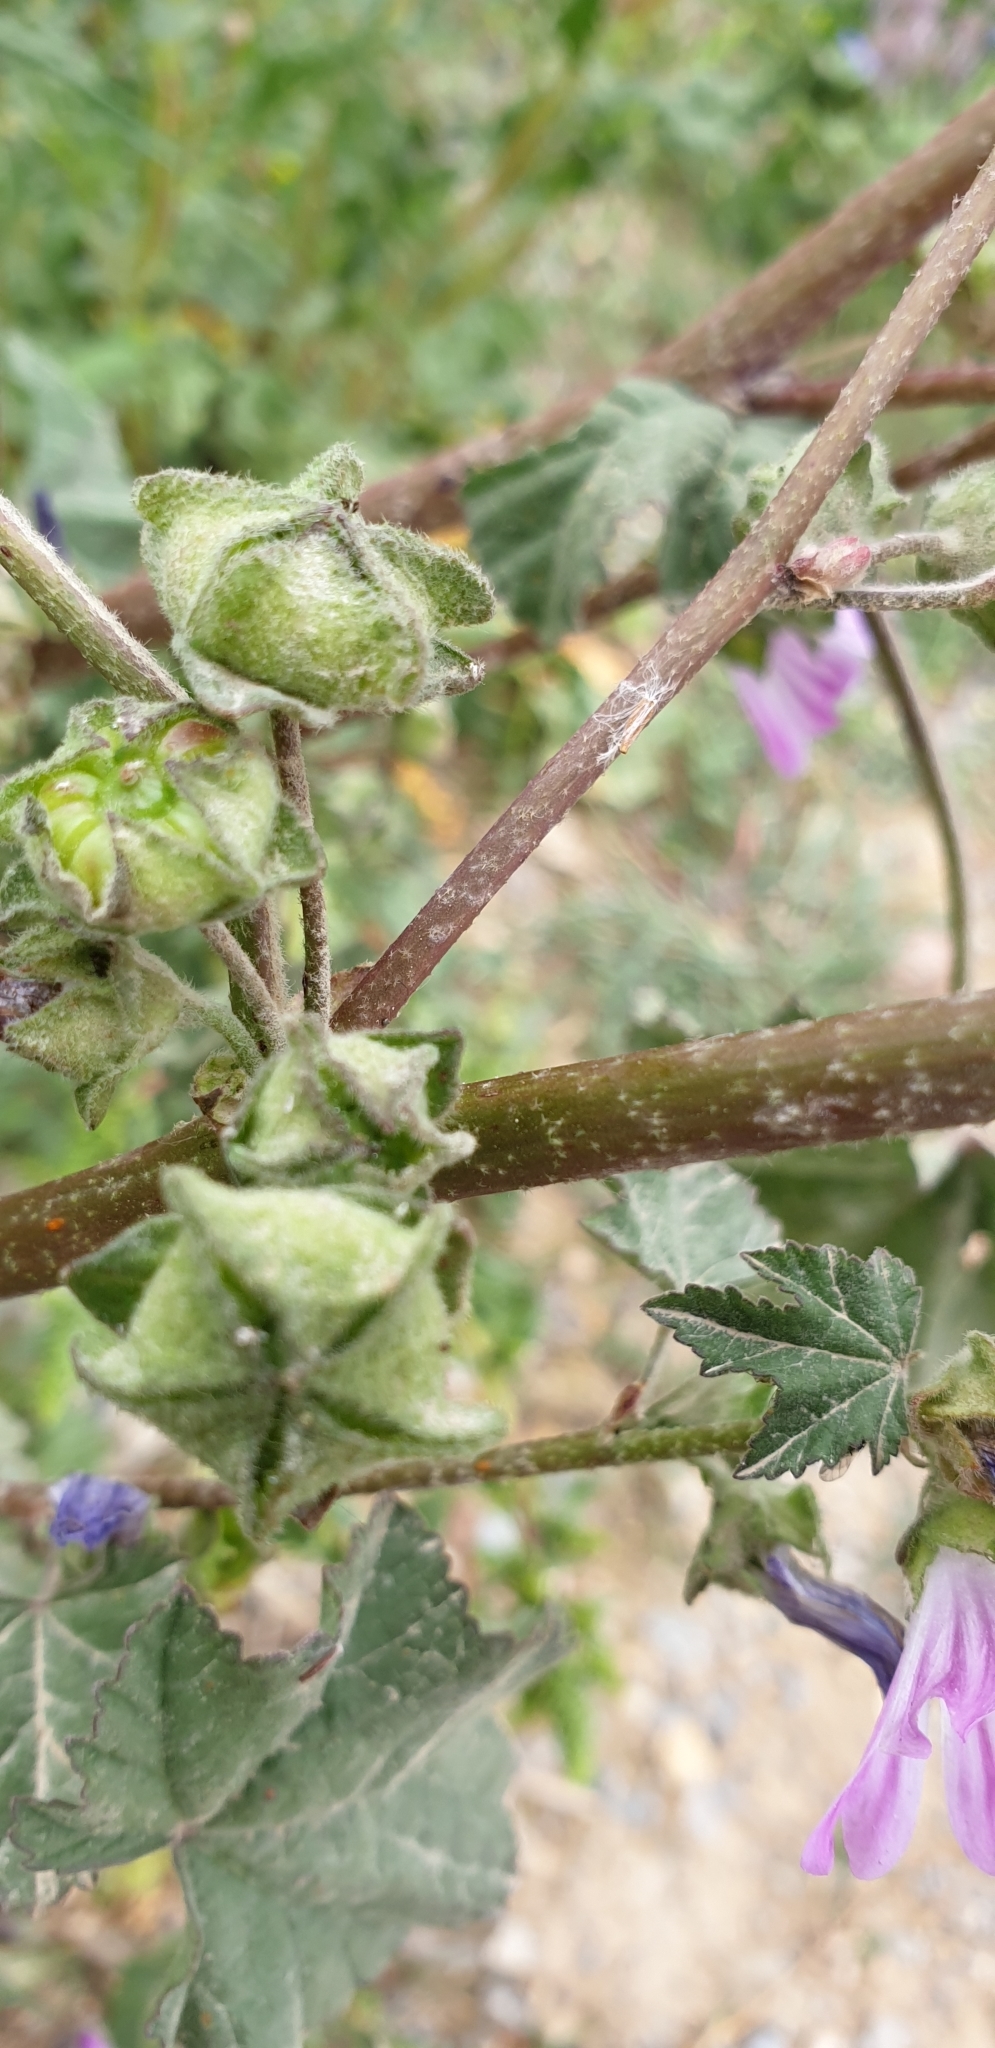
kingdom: Plantae
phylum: Tracheophyta
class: Magnoliopsida
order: Malvales
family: Malvaceae
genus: Malva
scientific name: Malva sylvestris
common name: Common mallow
